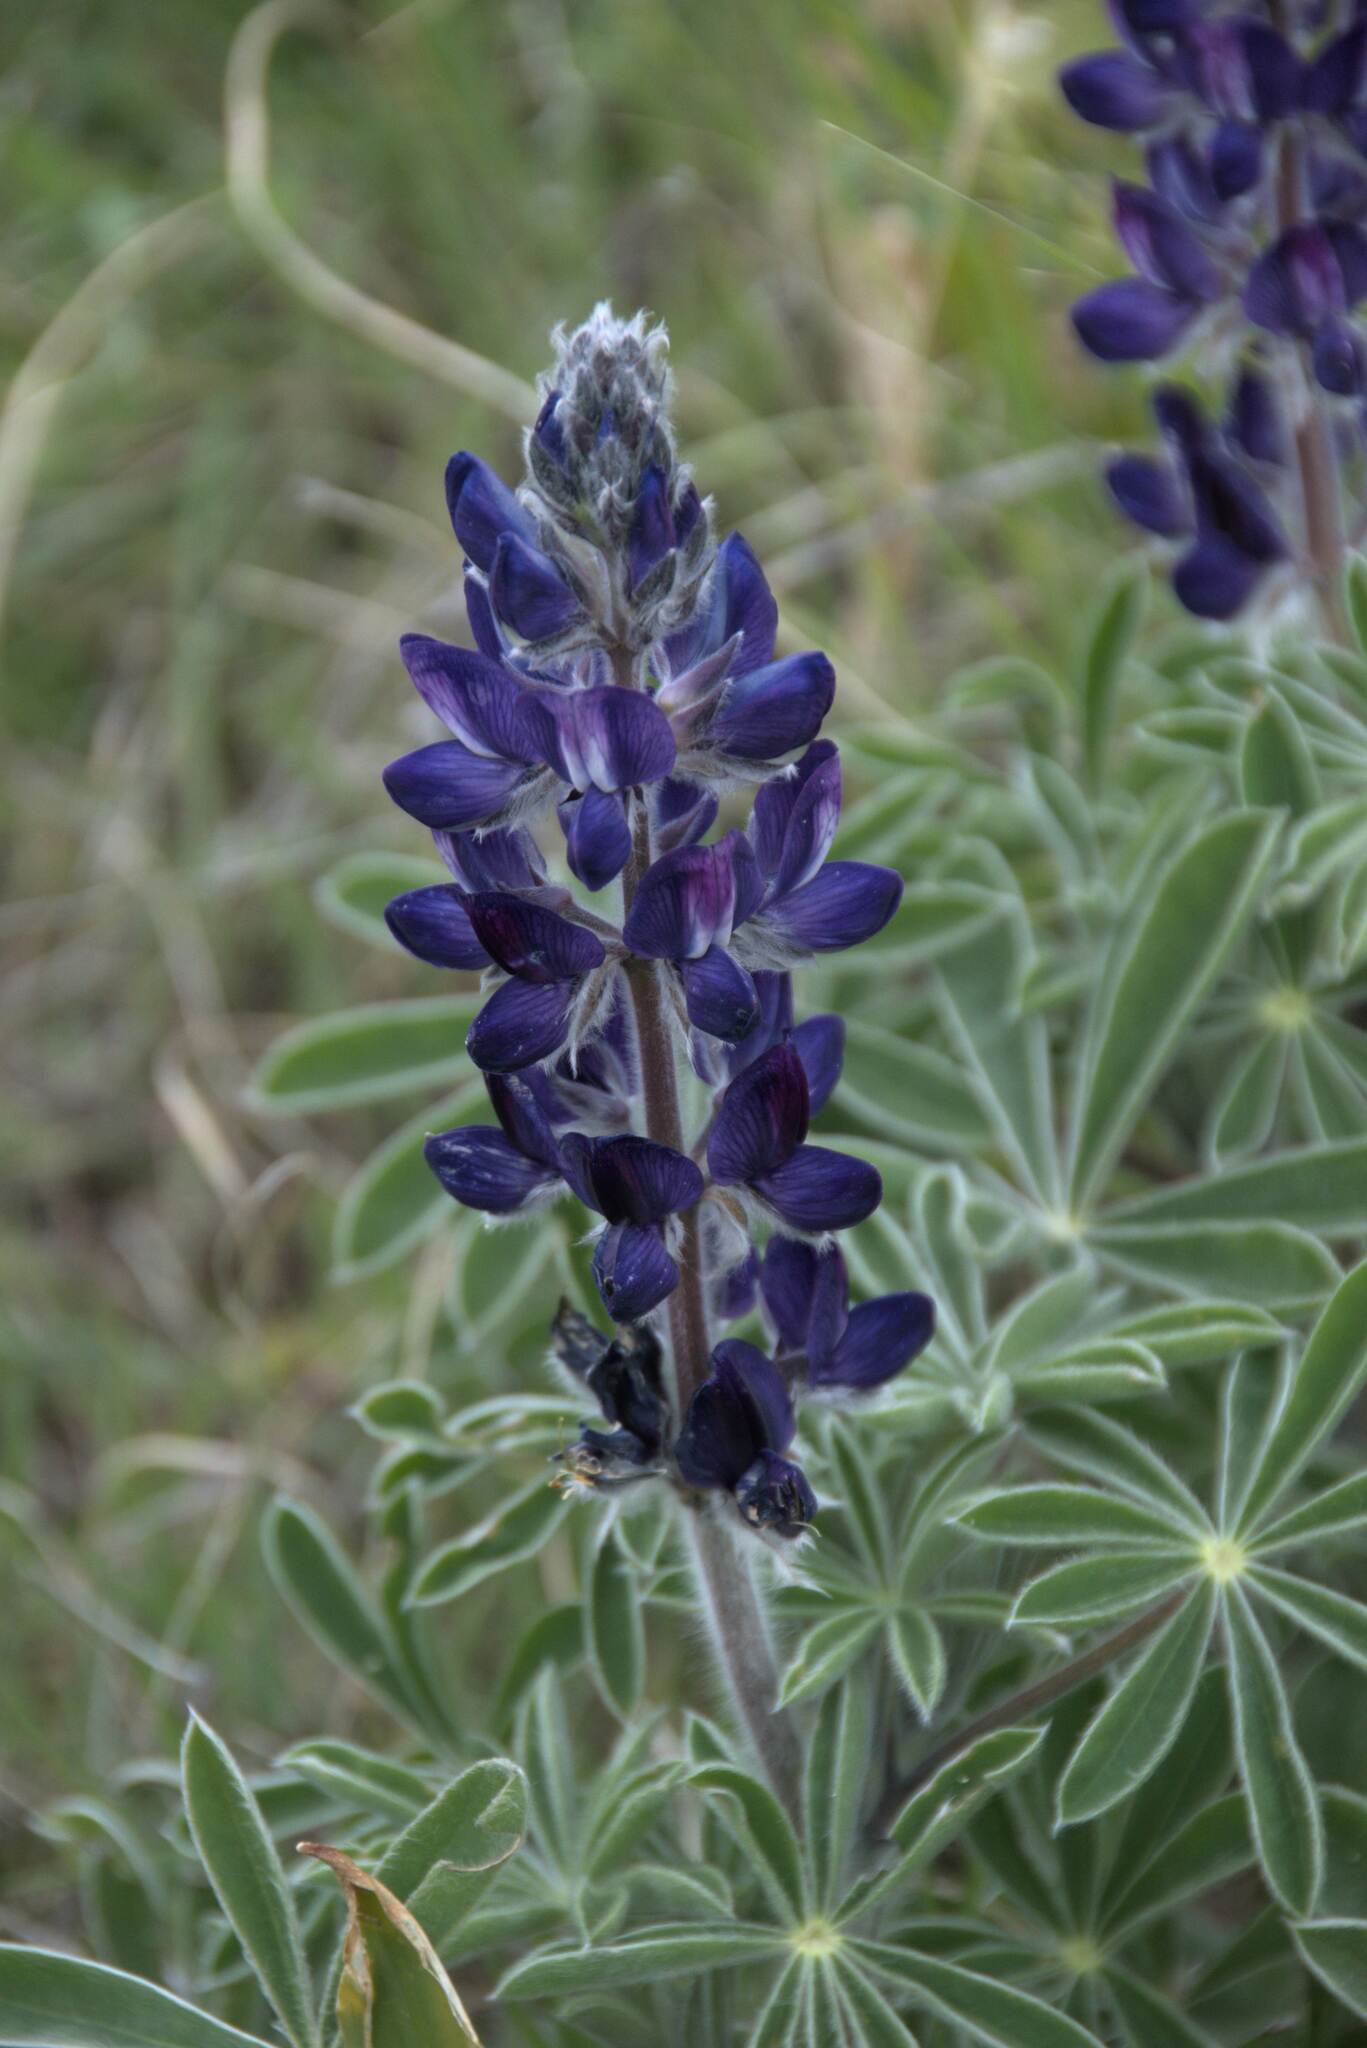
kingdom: Plantae
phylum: Tracheophyta
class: Magnoliopsida
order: Fabales
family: Fabaceae
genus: Lupinus
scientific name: Lupinus pilosus
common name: Blue lupine
